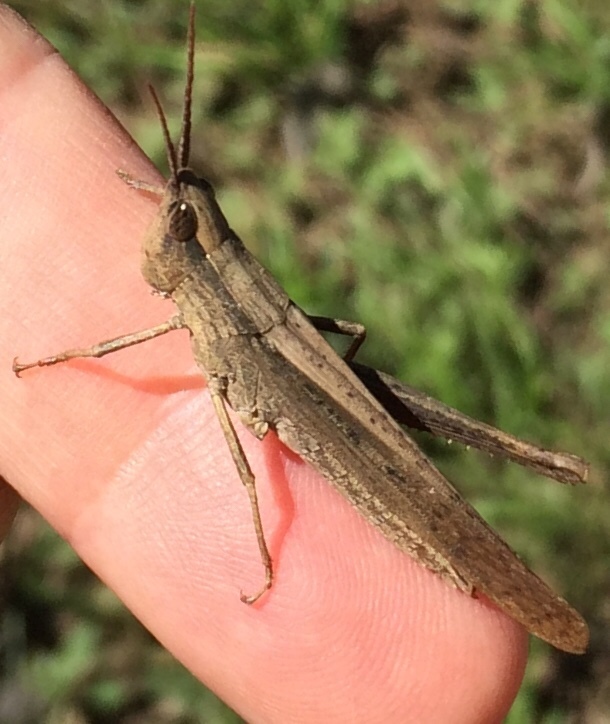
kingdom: Animalia
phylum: Arthropoda
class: Insecta
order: Orthoptera
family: Acrididae
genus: Metaleptea
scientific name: Metaleptea brevicornis
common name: Clipped-wing grasshopper
